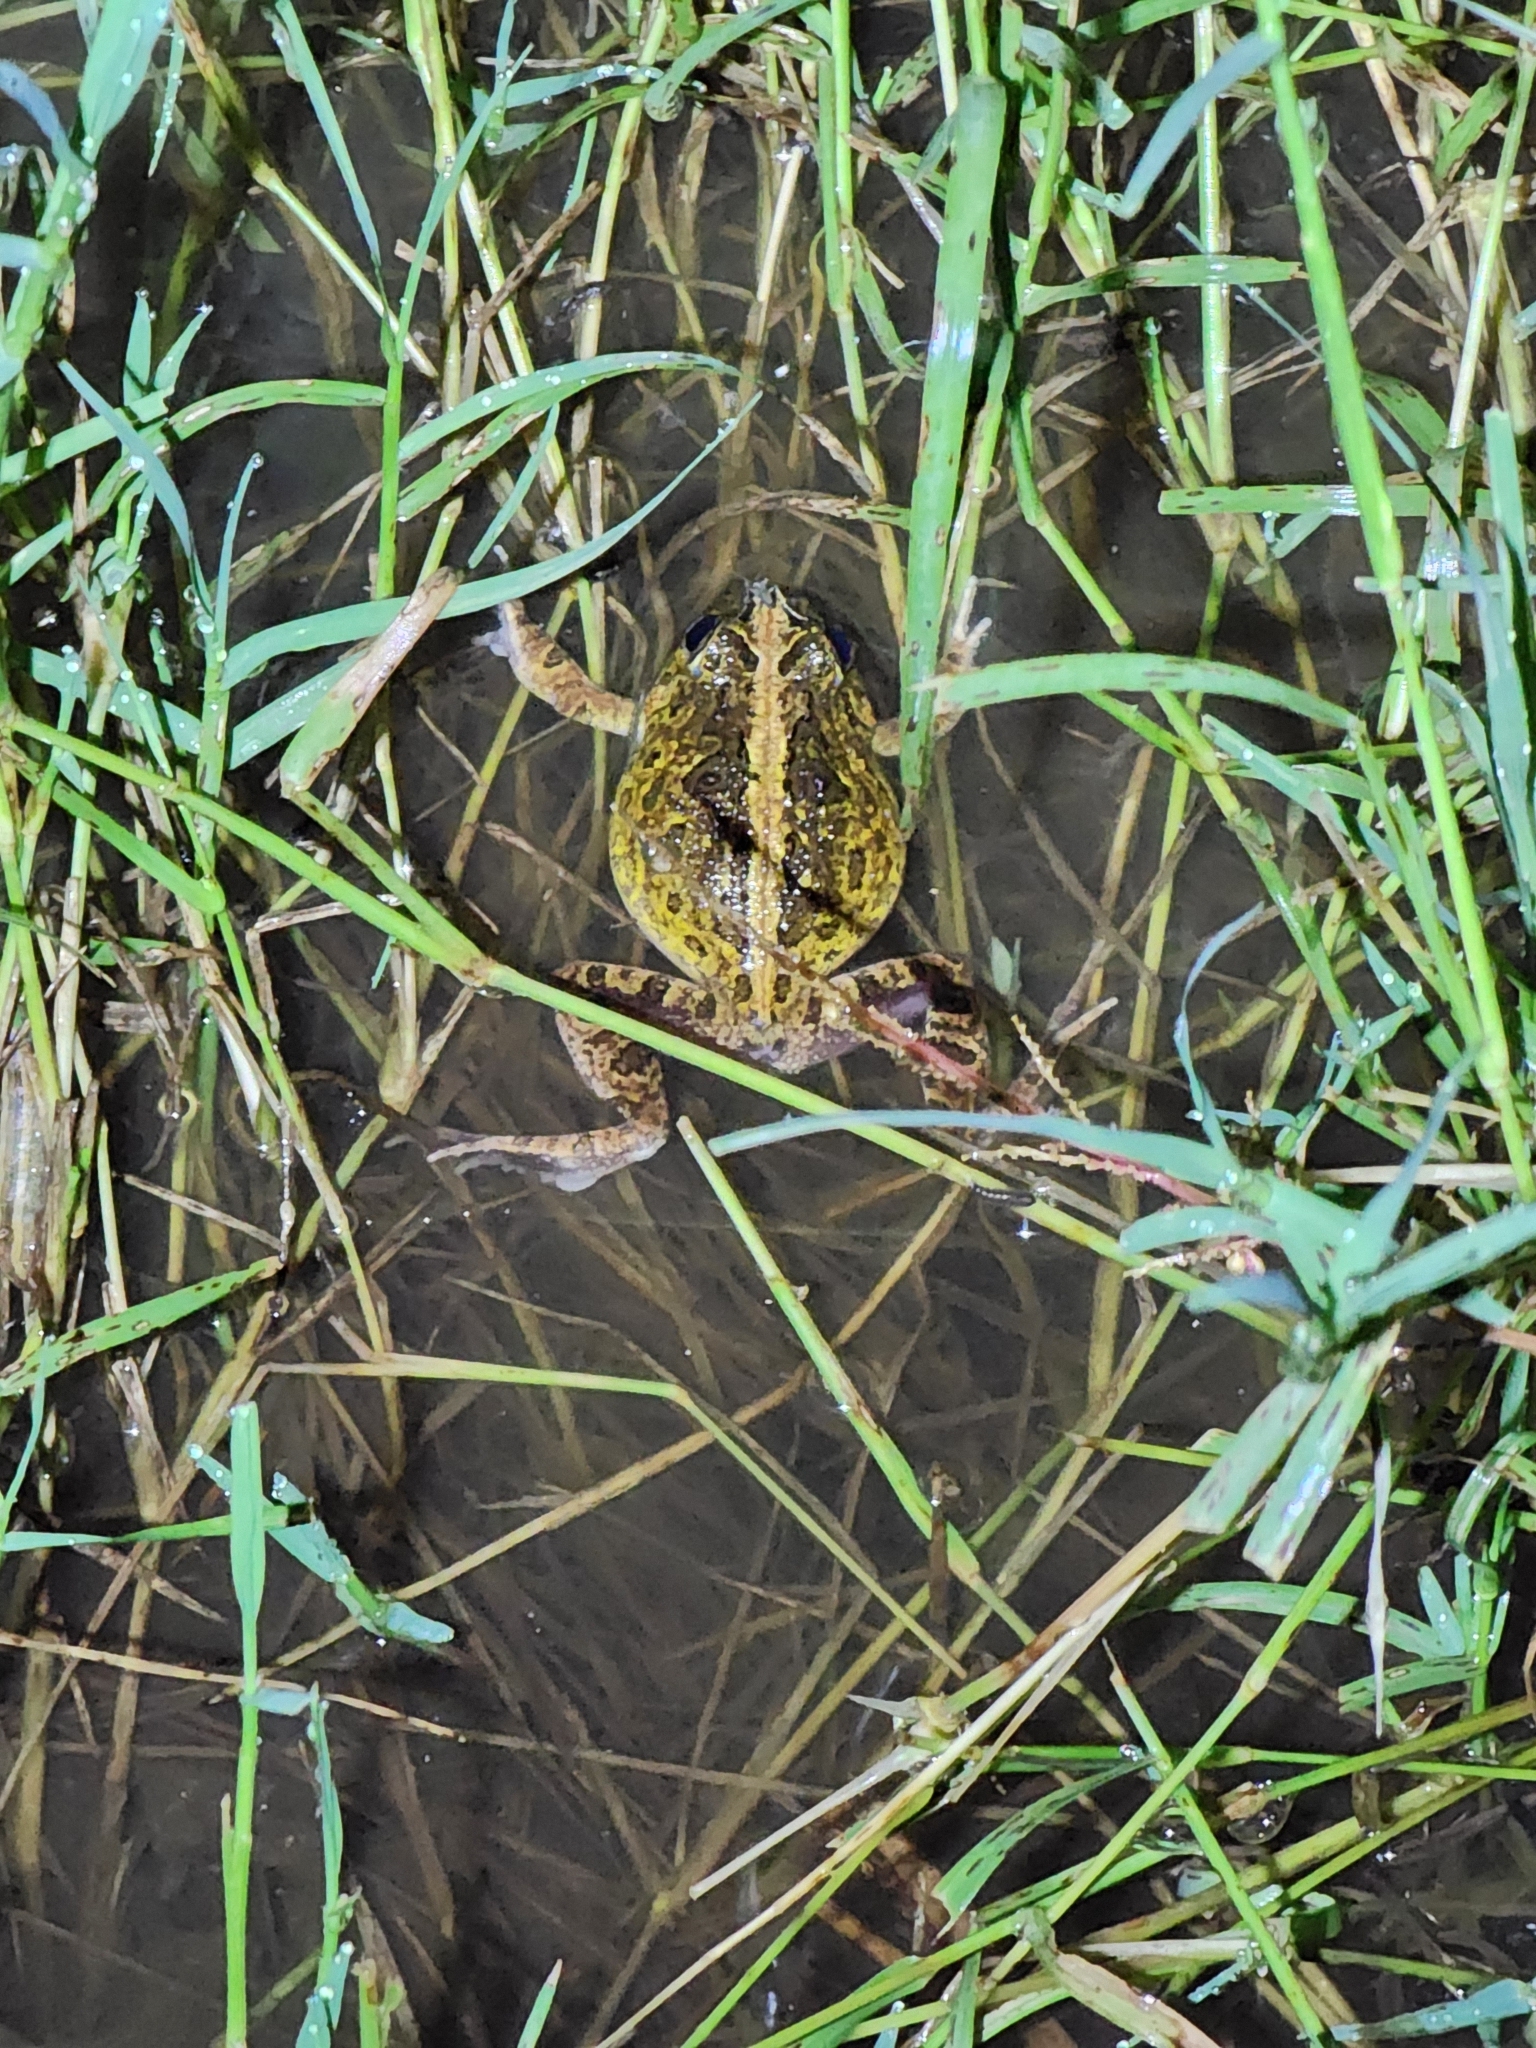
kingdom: Animalia
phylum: Chordata
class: Amphibia
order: Anura
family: Limnodynastidae
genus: Platyplectrum
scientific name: Platyplectrum ornatum
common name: Ornate burrowing frog
